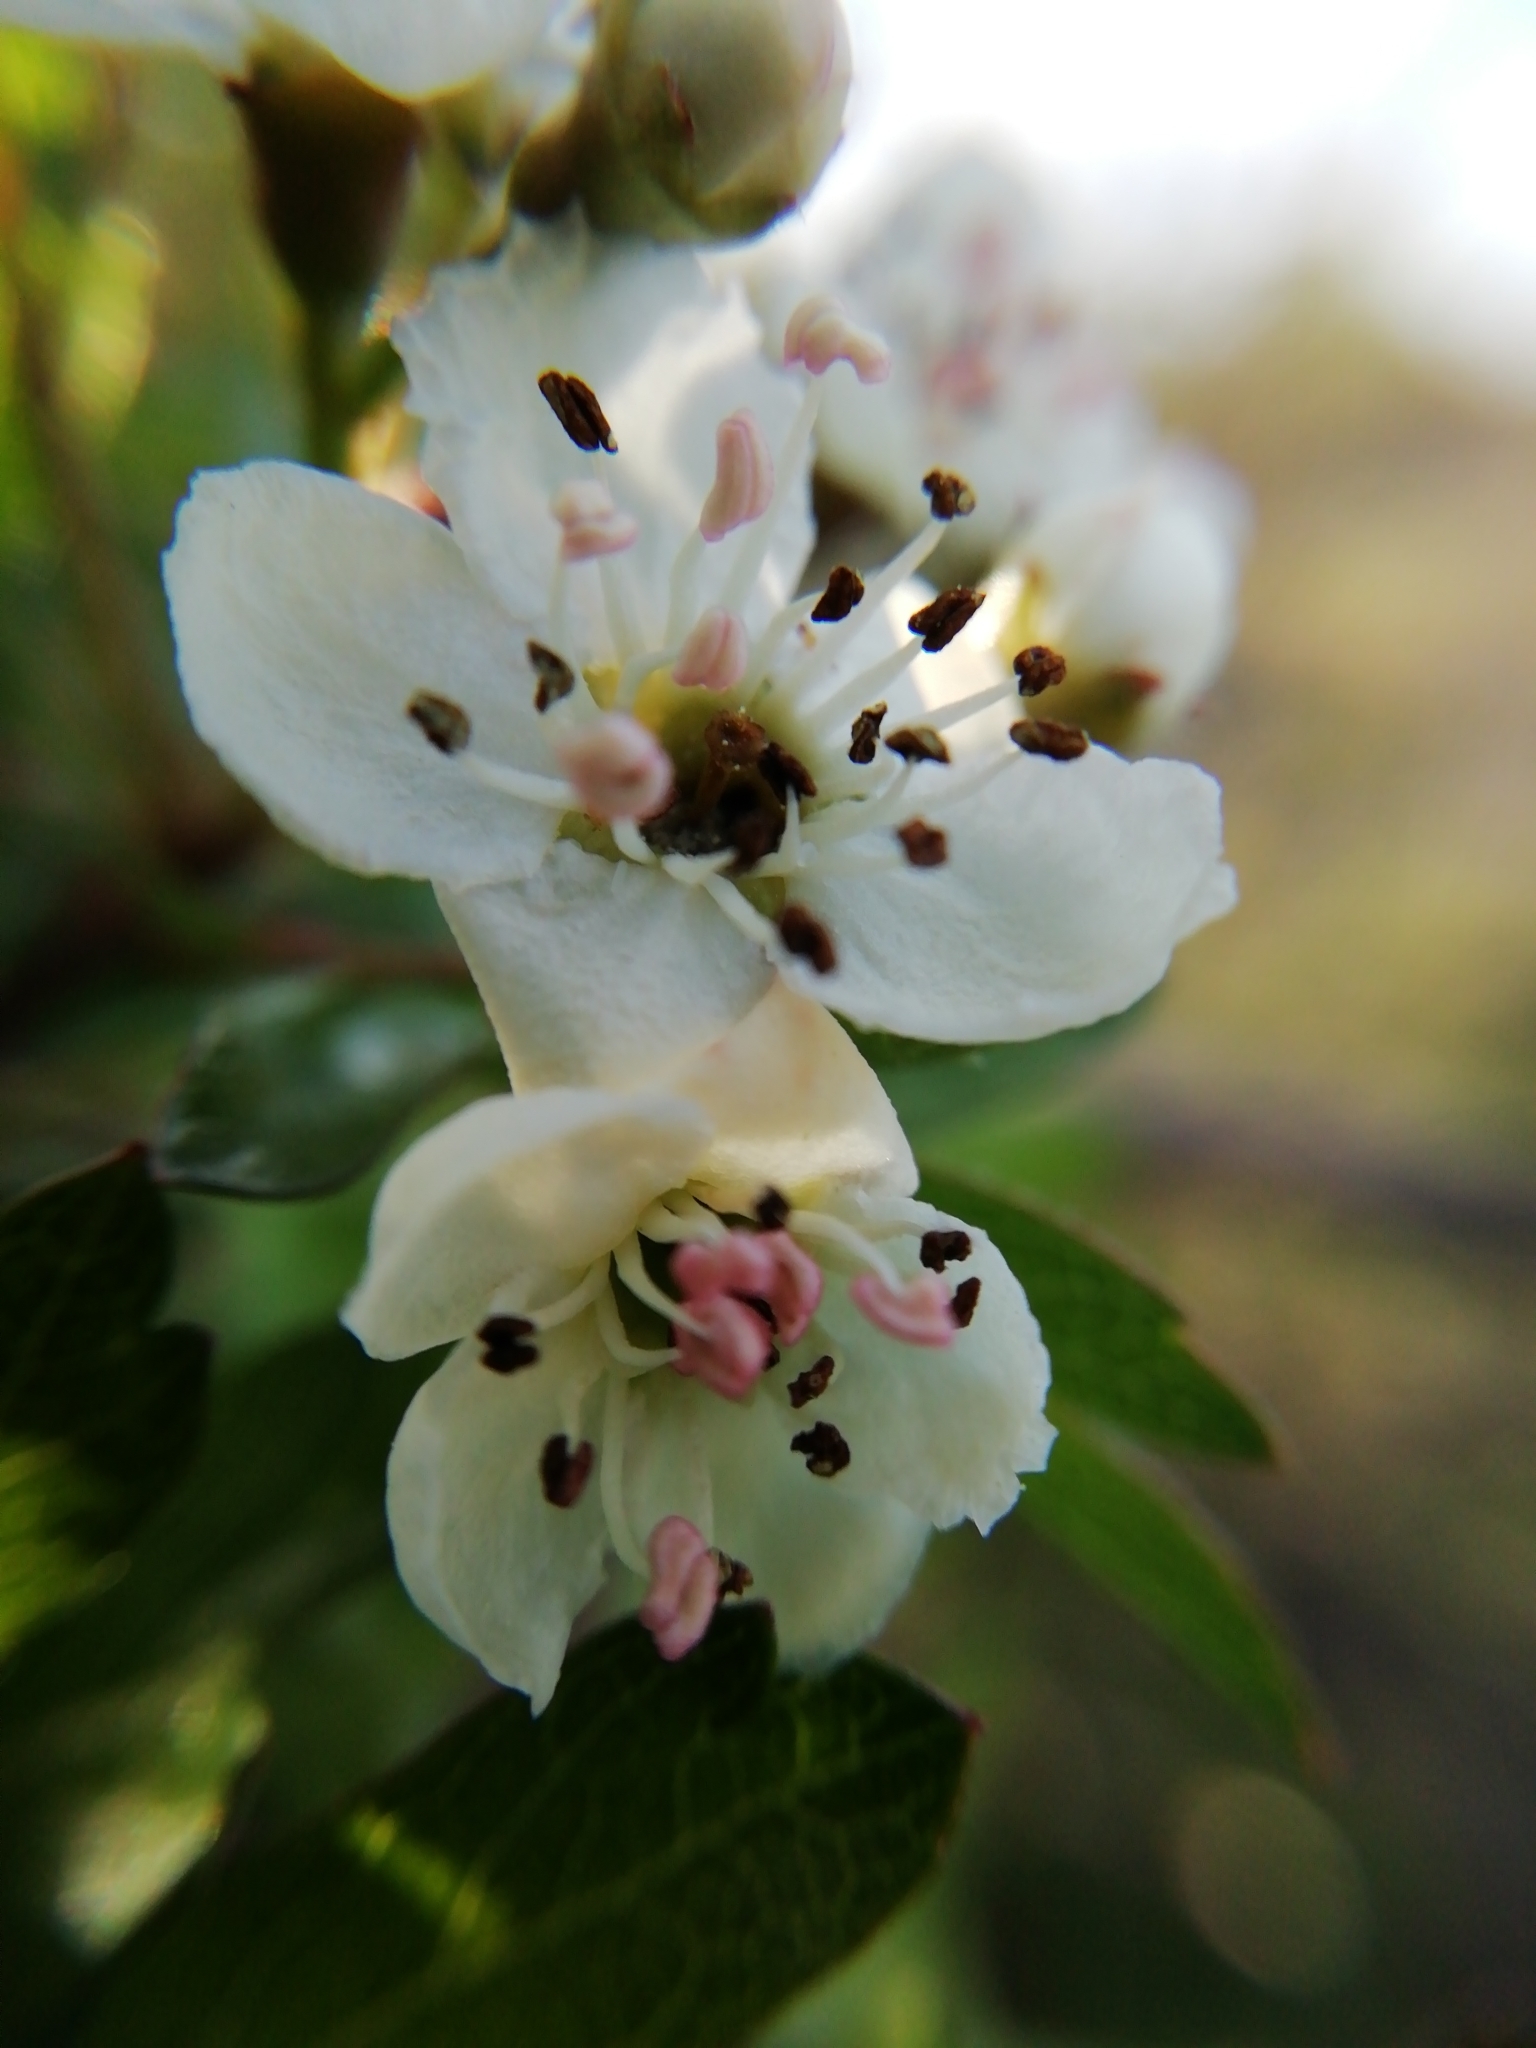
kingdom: Plantae
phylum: Tracheophyta
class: Magnoliopsida
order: Rosales
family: Rosaceae
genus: Crataegus
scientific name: Crataegus monogyna
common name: Hawthorn
